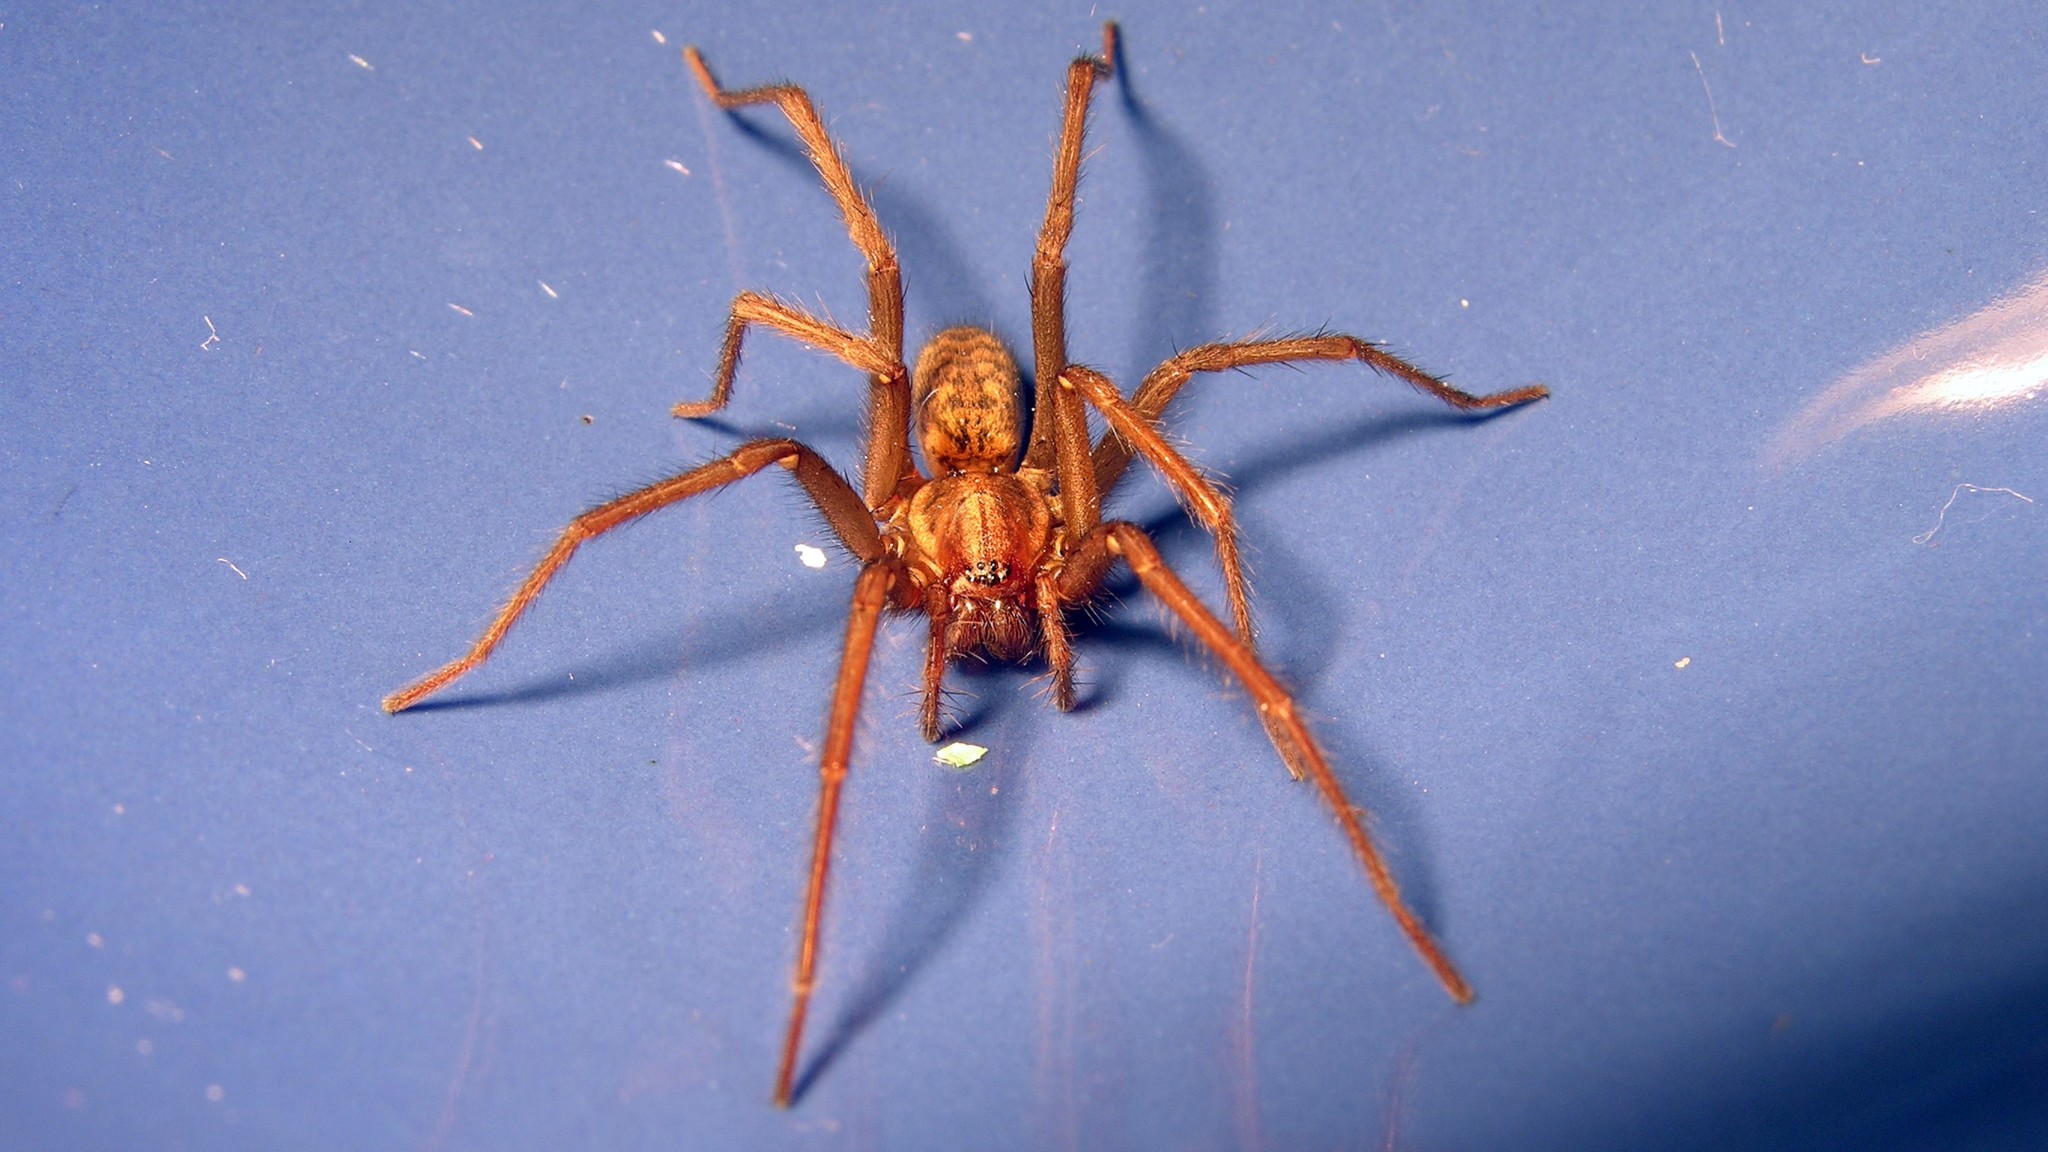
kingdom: Animalia
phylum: Arthropoda
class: Arachnida
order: Araneae
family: Agelenidae
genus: Eratigena
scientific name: Eratigena atrica
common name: Giant house spider
